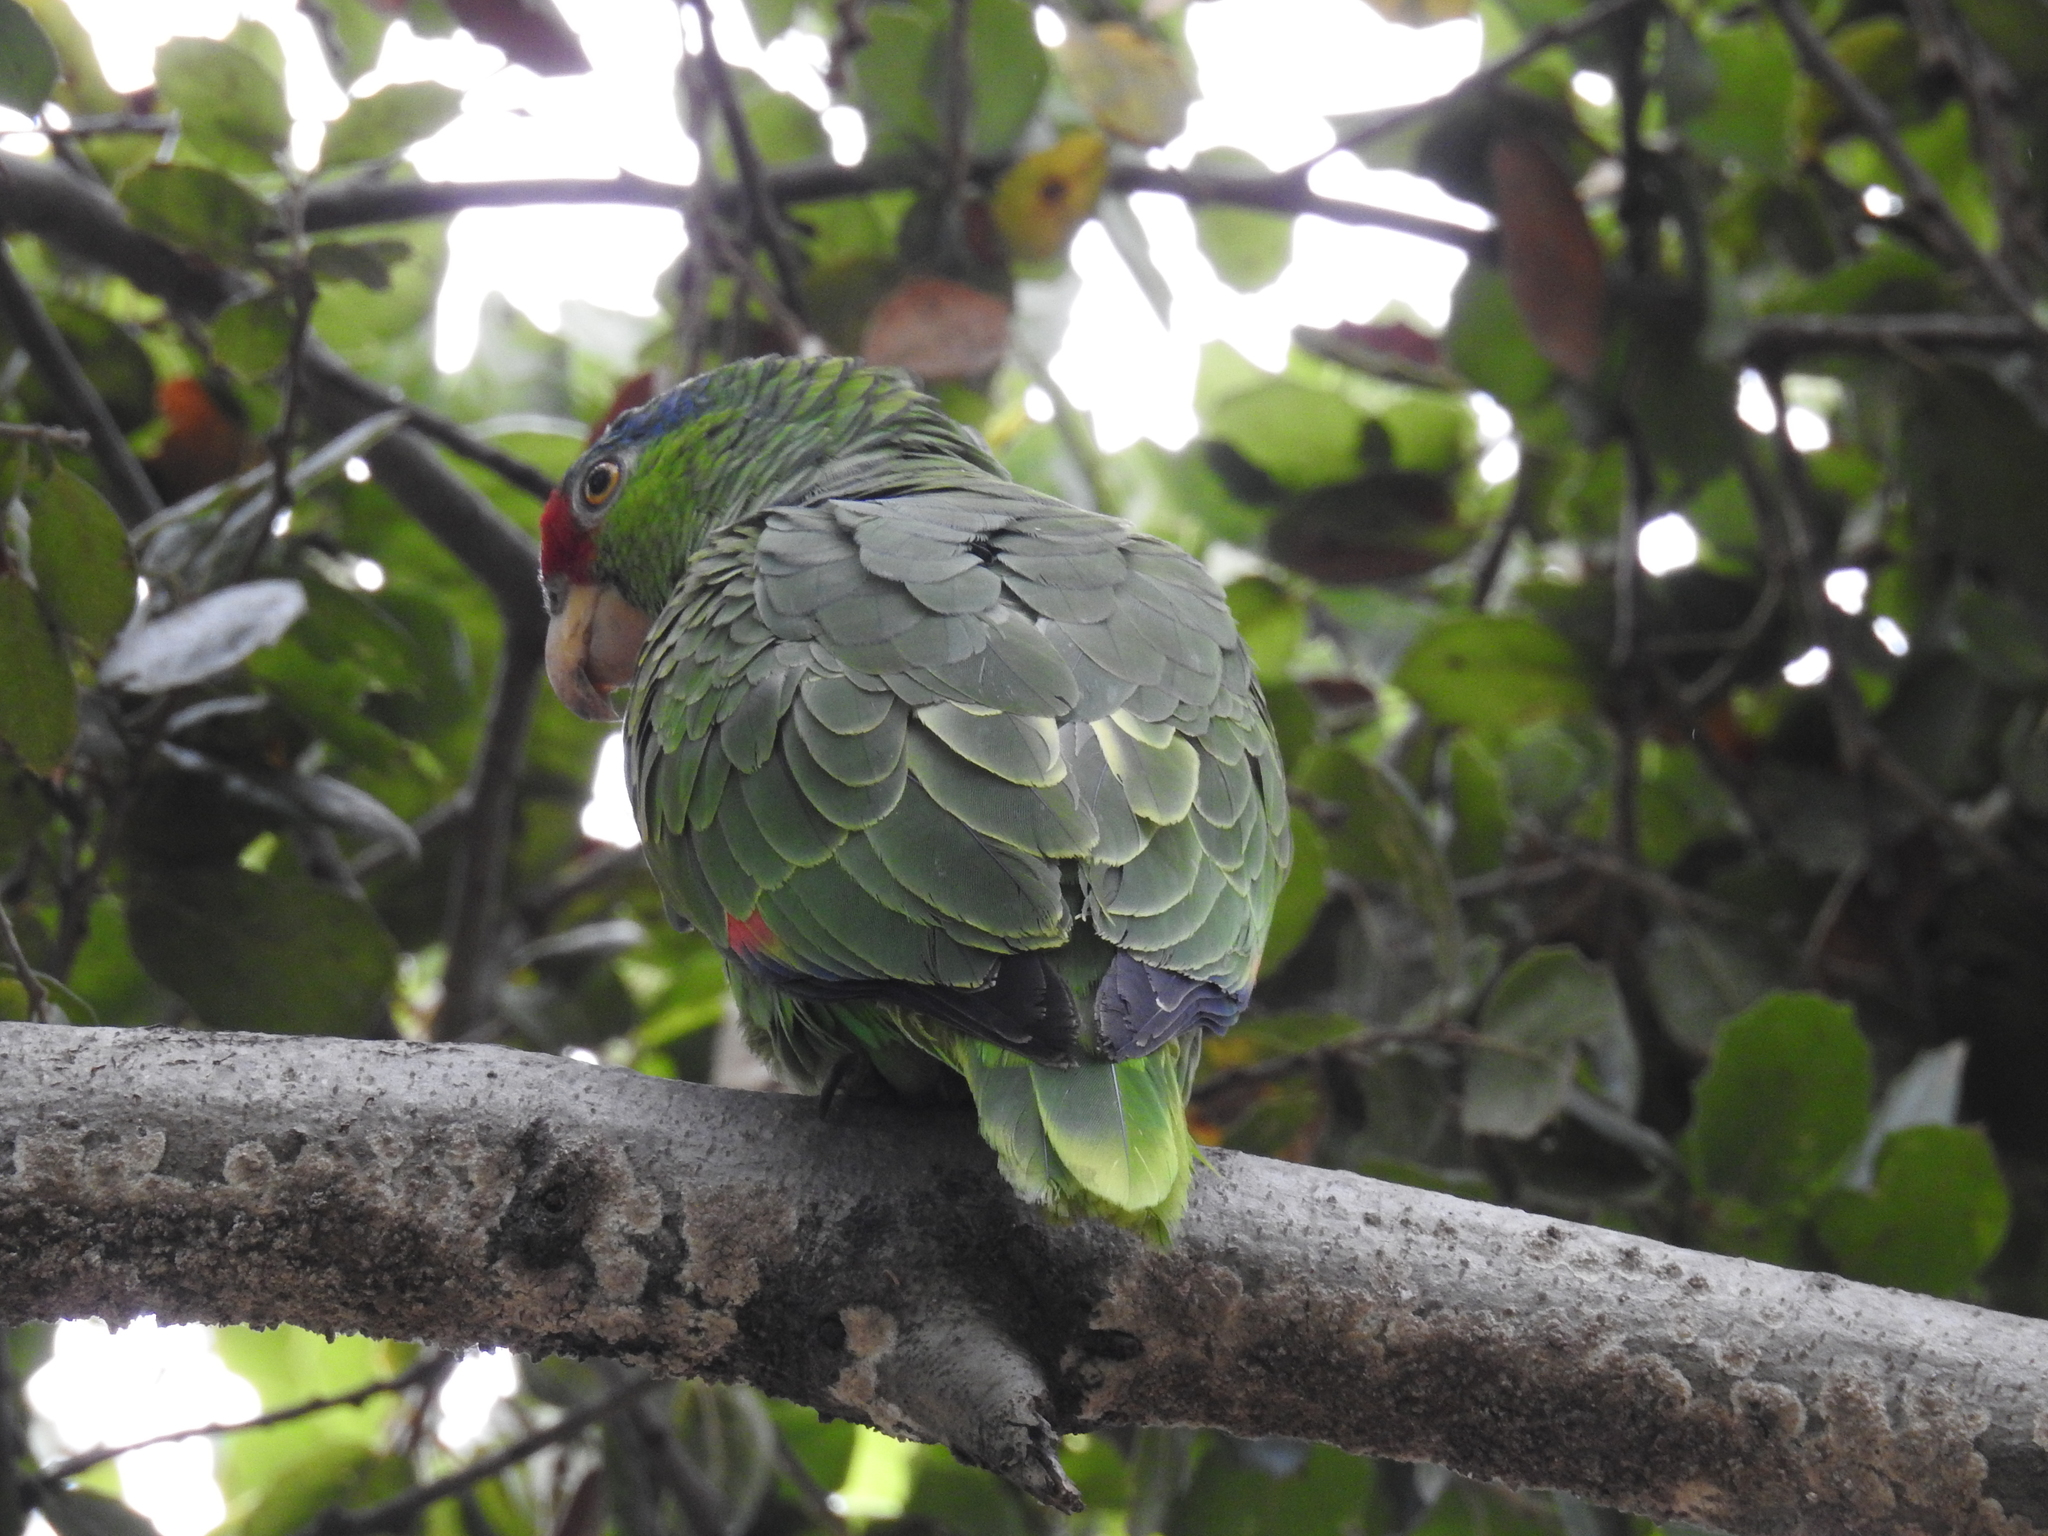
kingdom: Animalia
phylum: Chordata
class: Aves
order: Psittaciformes
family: Psittacidae
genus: Amazona
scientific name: Amazona viridigenalis
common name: Red-crowned amazon
